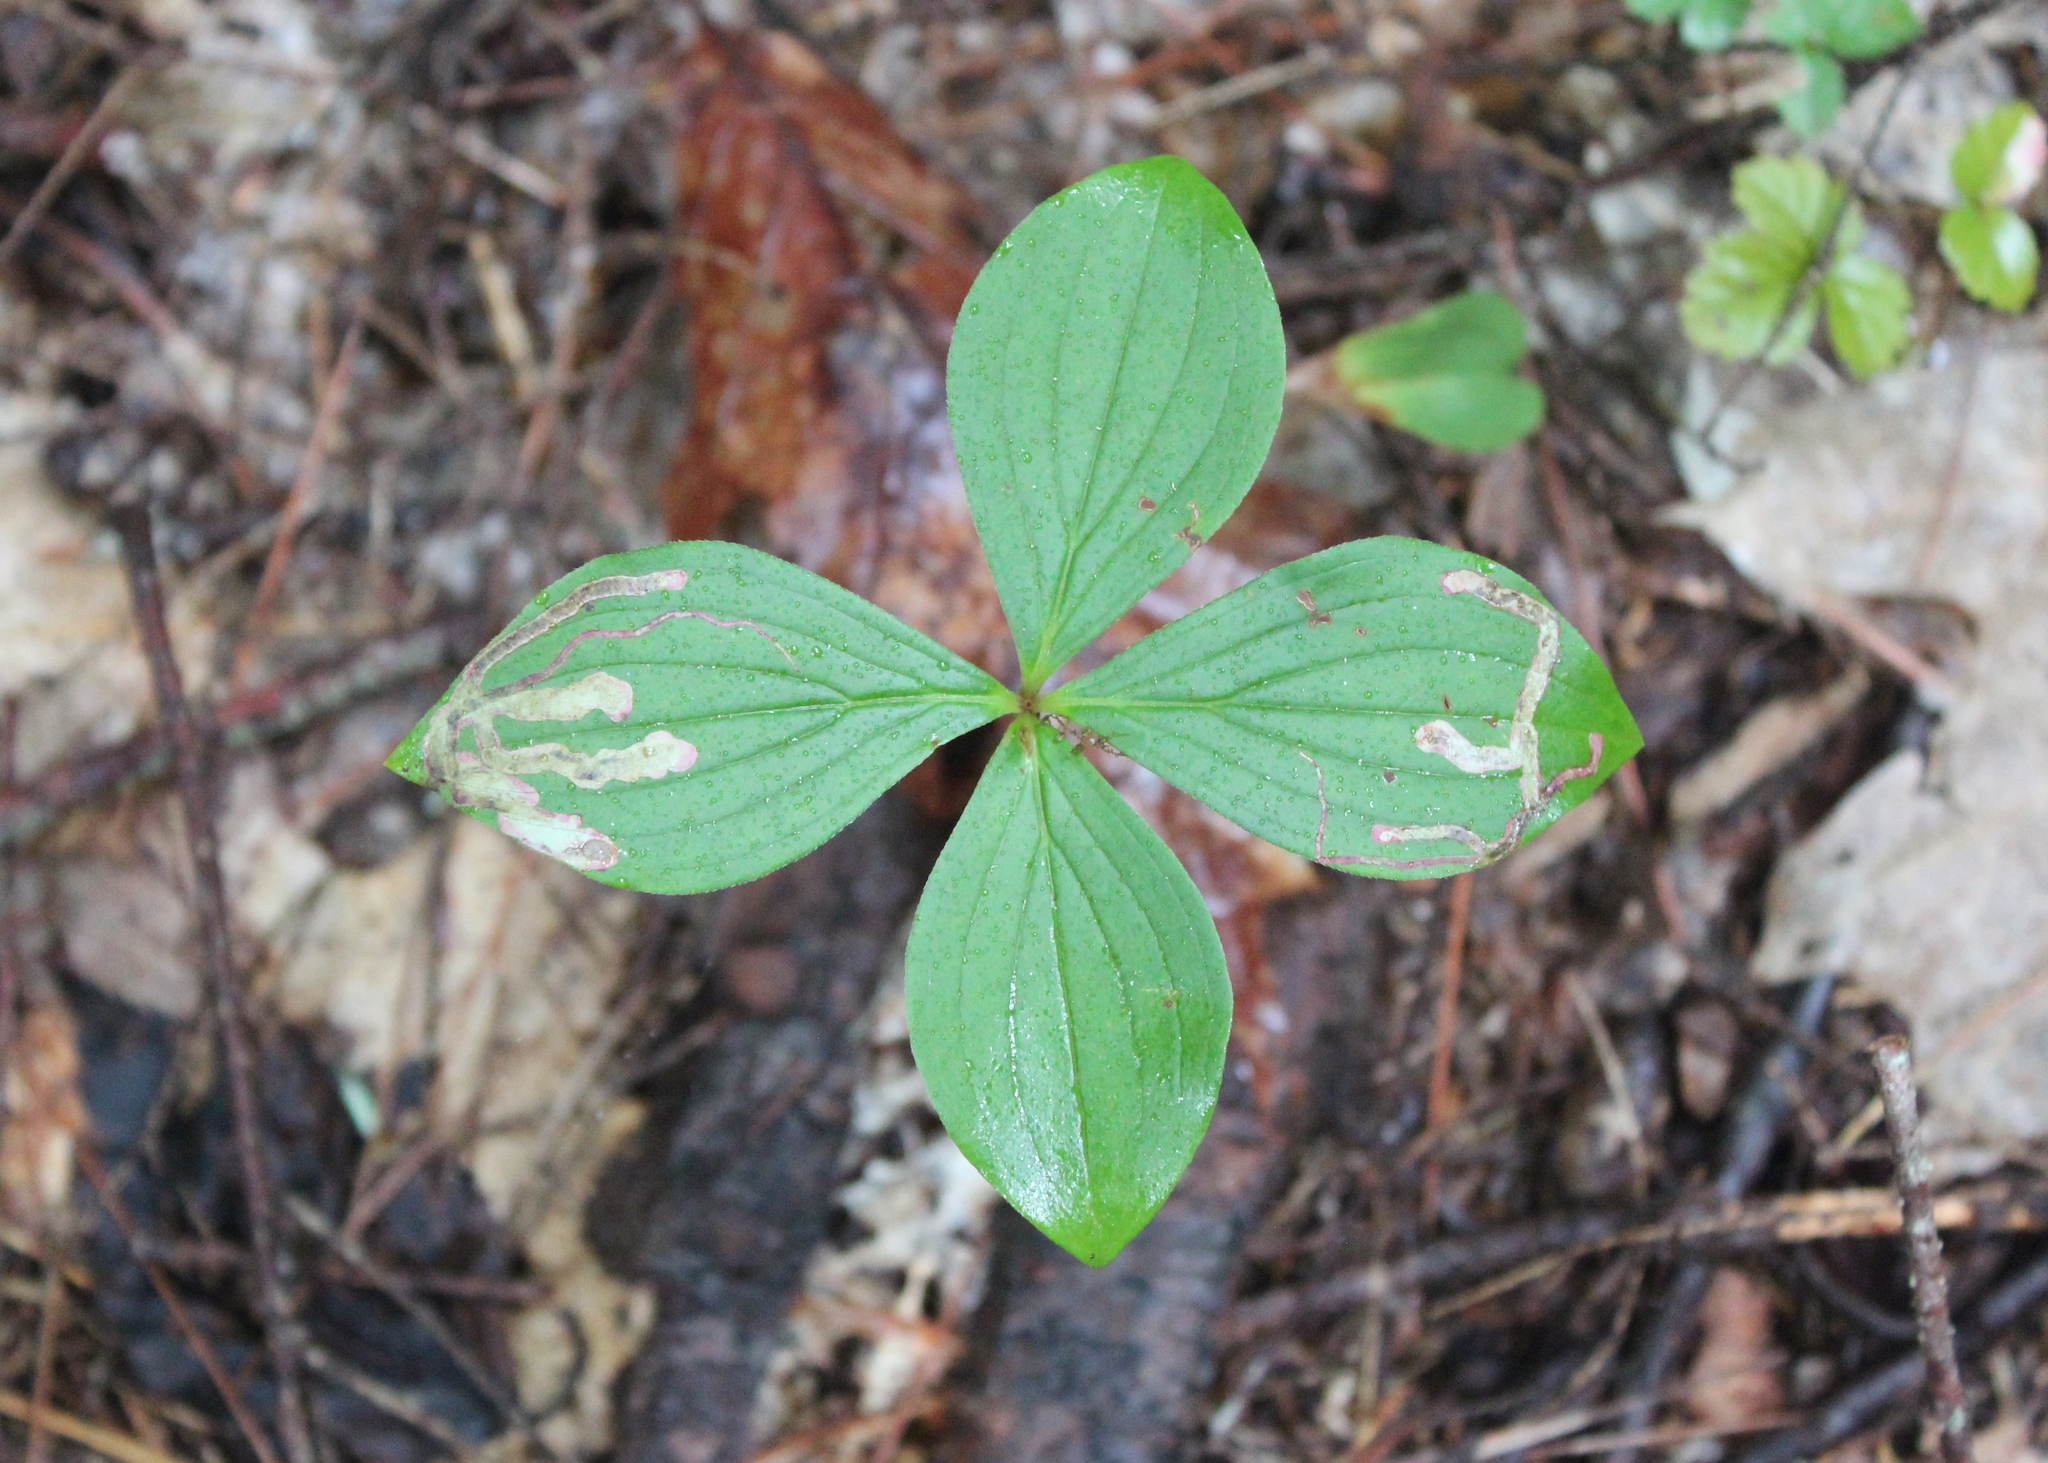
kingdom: Plantae
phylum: Tracheophyta
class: Magnoliopsida
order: Cornales
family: Cornaceae
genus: Cornus
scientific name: Cornus canadensis
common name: Creeping dogwood
